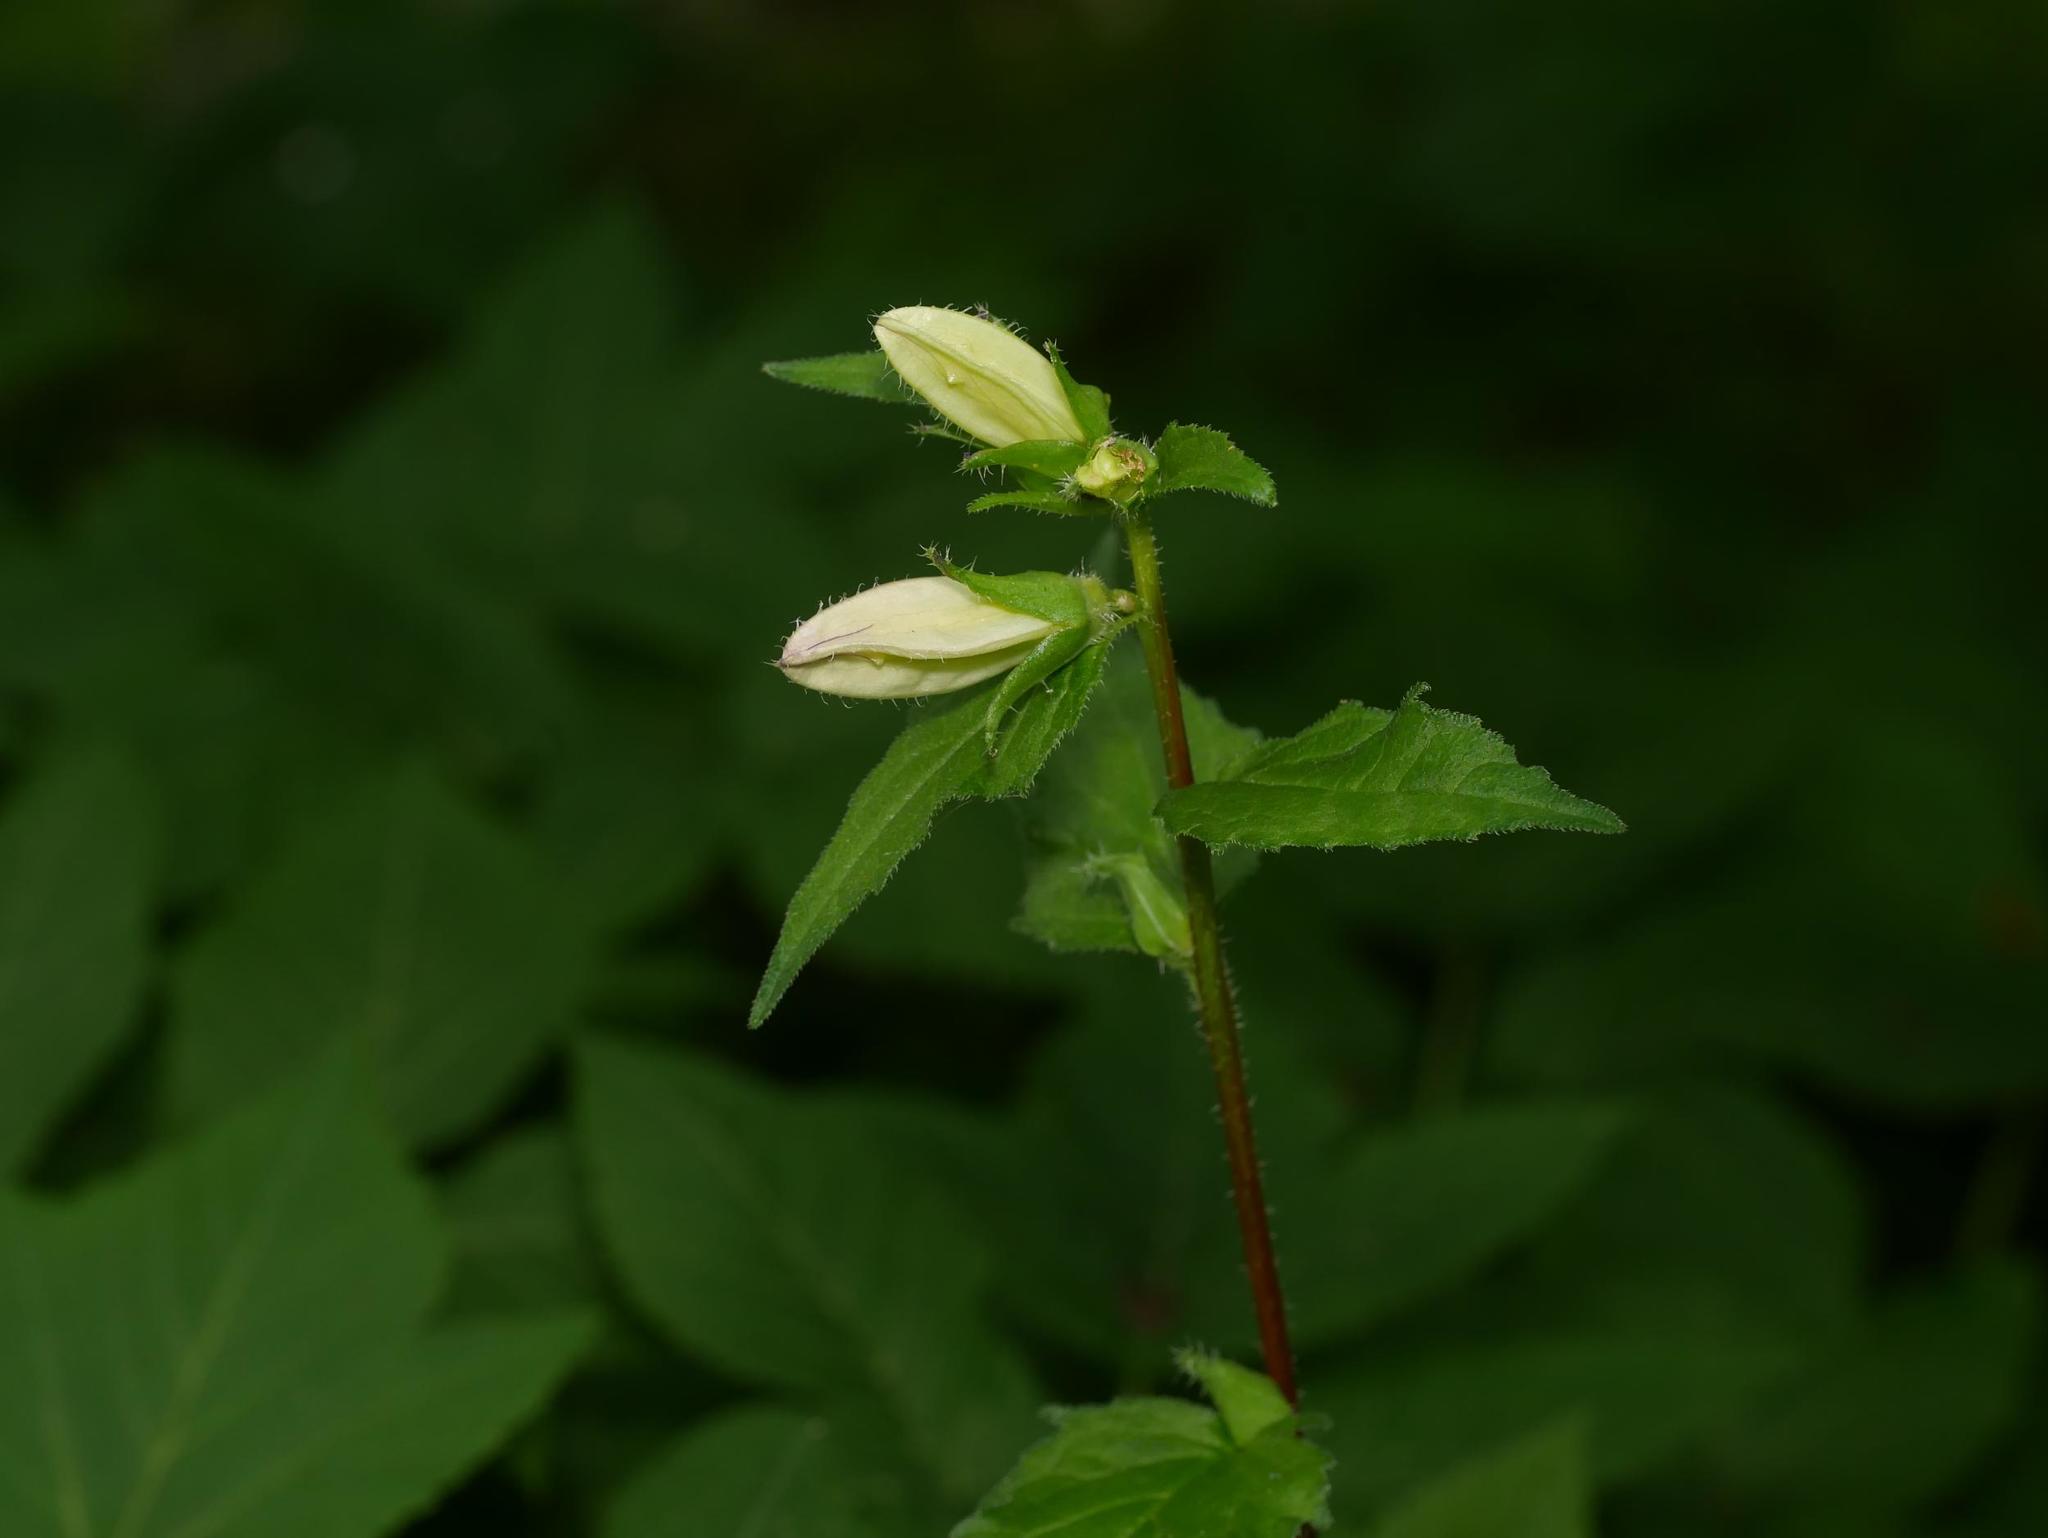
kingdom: Plantae
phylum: Tracheophyta
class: Magnoliopsida
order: Asterales
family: Campanulaceae
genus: Campanula
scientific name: Campanula trachelium
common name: Nettle-leaved bellflower
